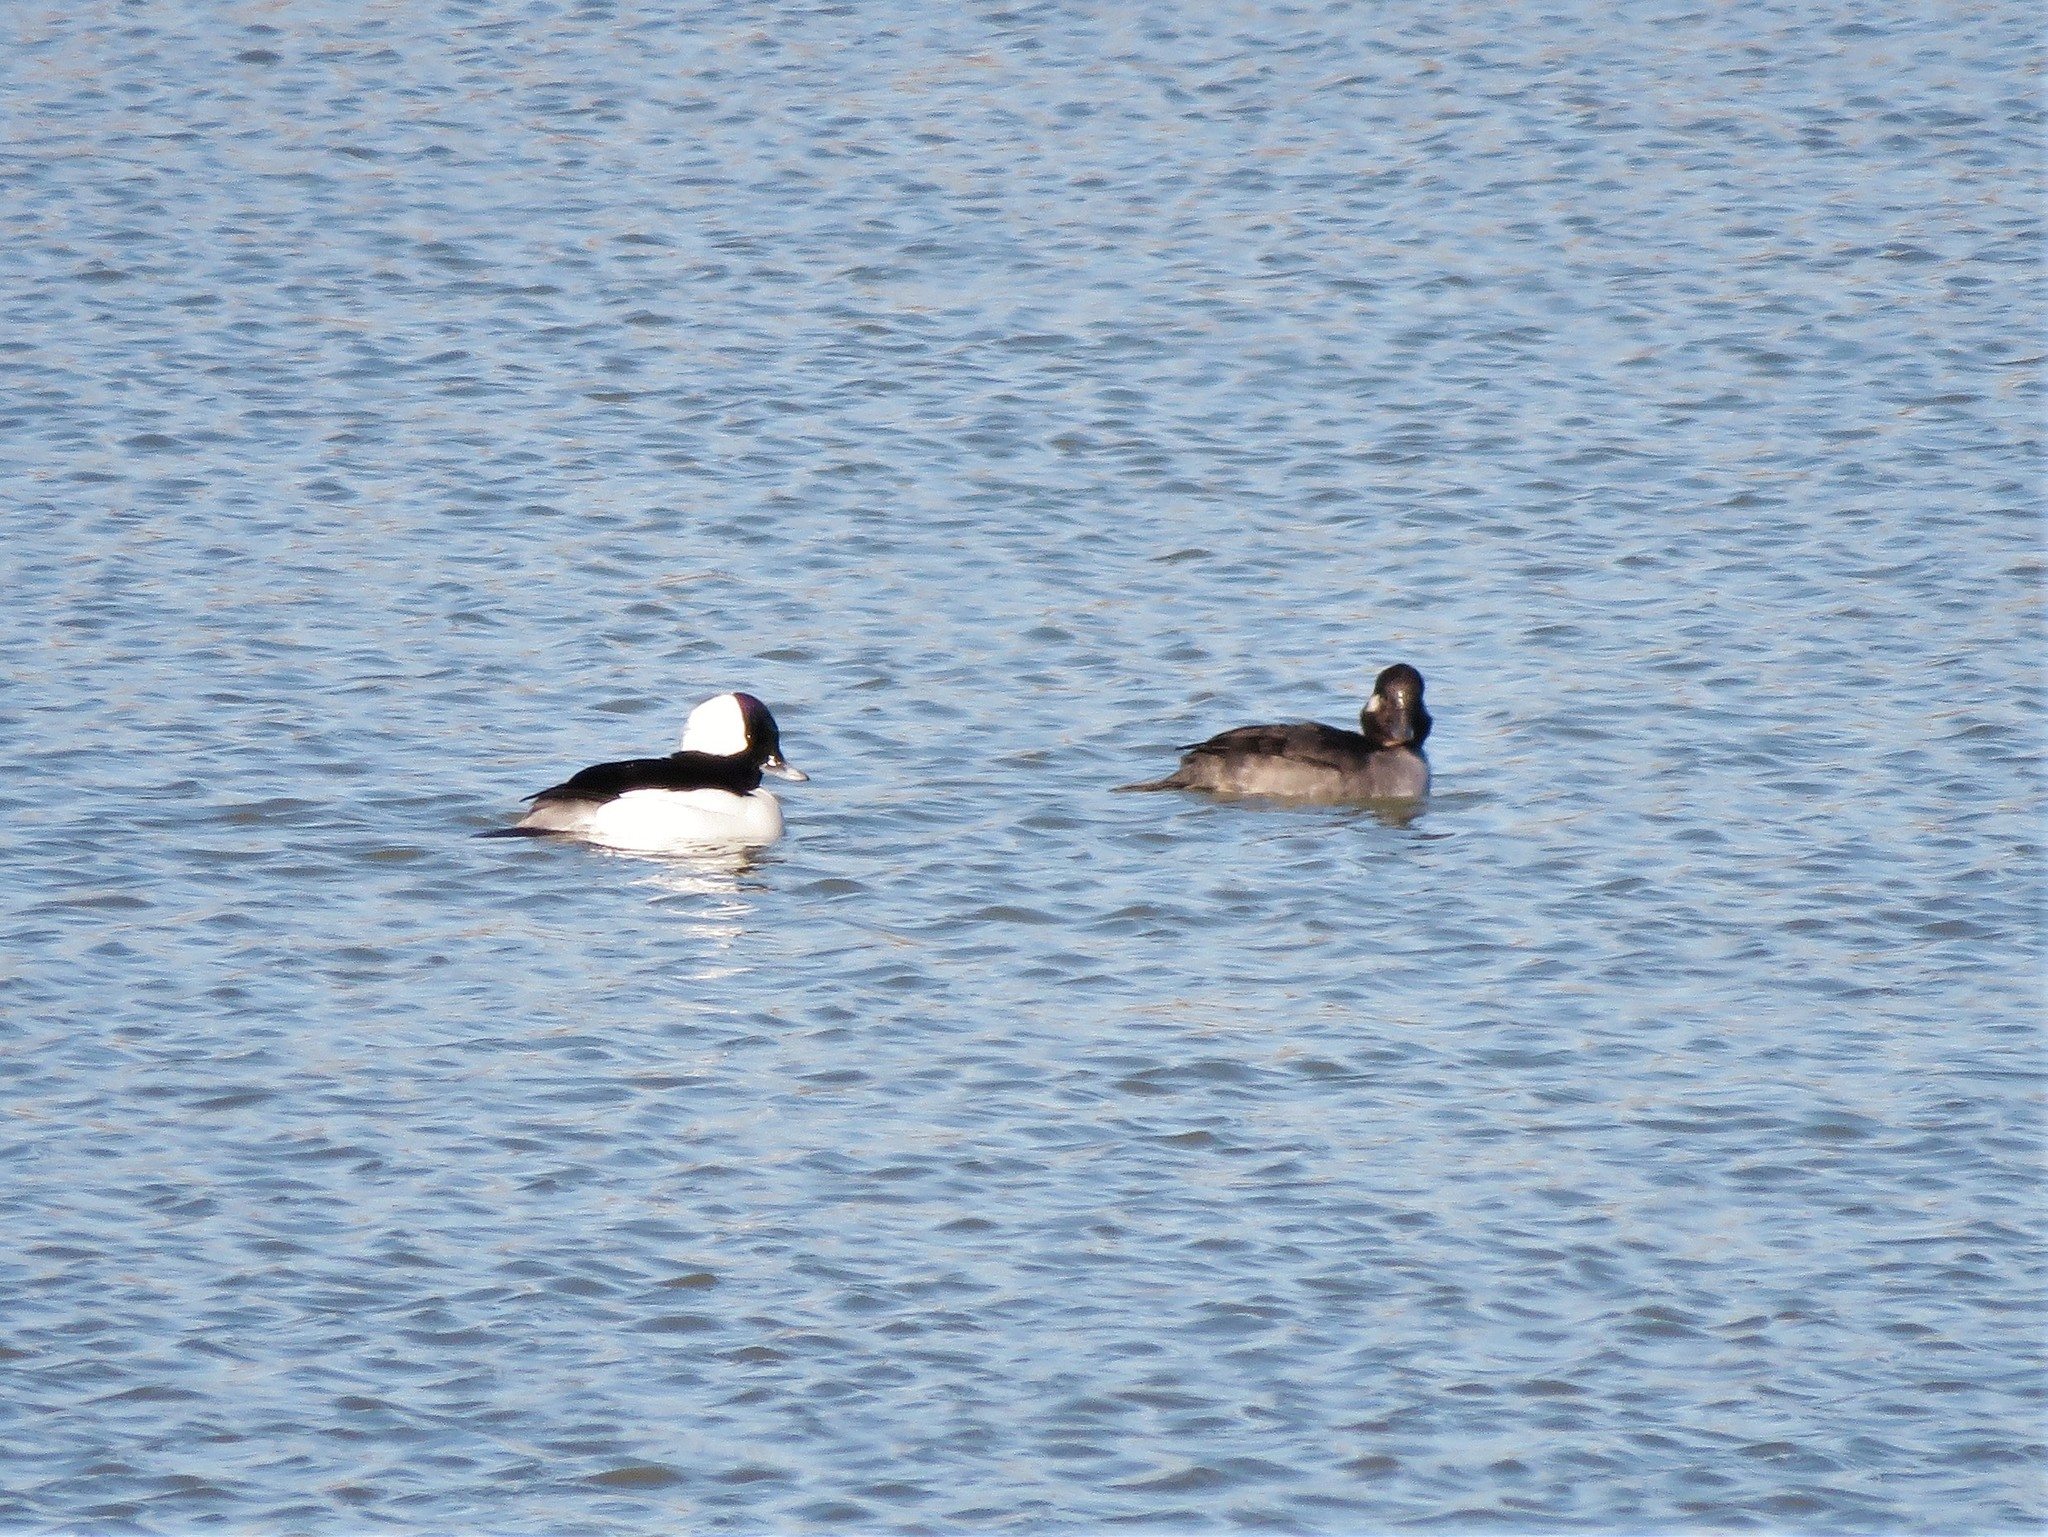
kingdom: Animalia
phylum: Chordata
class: Aves
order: Anseriformes
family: Anatidae
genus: Bucephala
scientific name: Bucephala albeola
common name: Bufflehead
